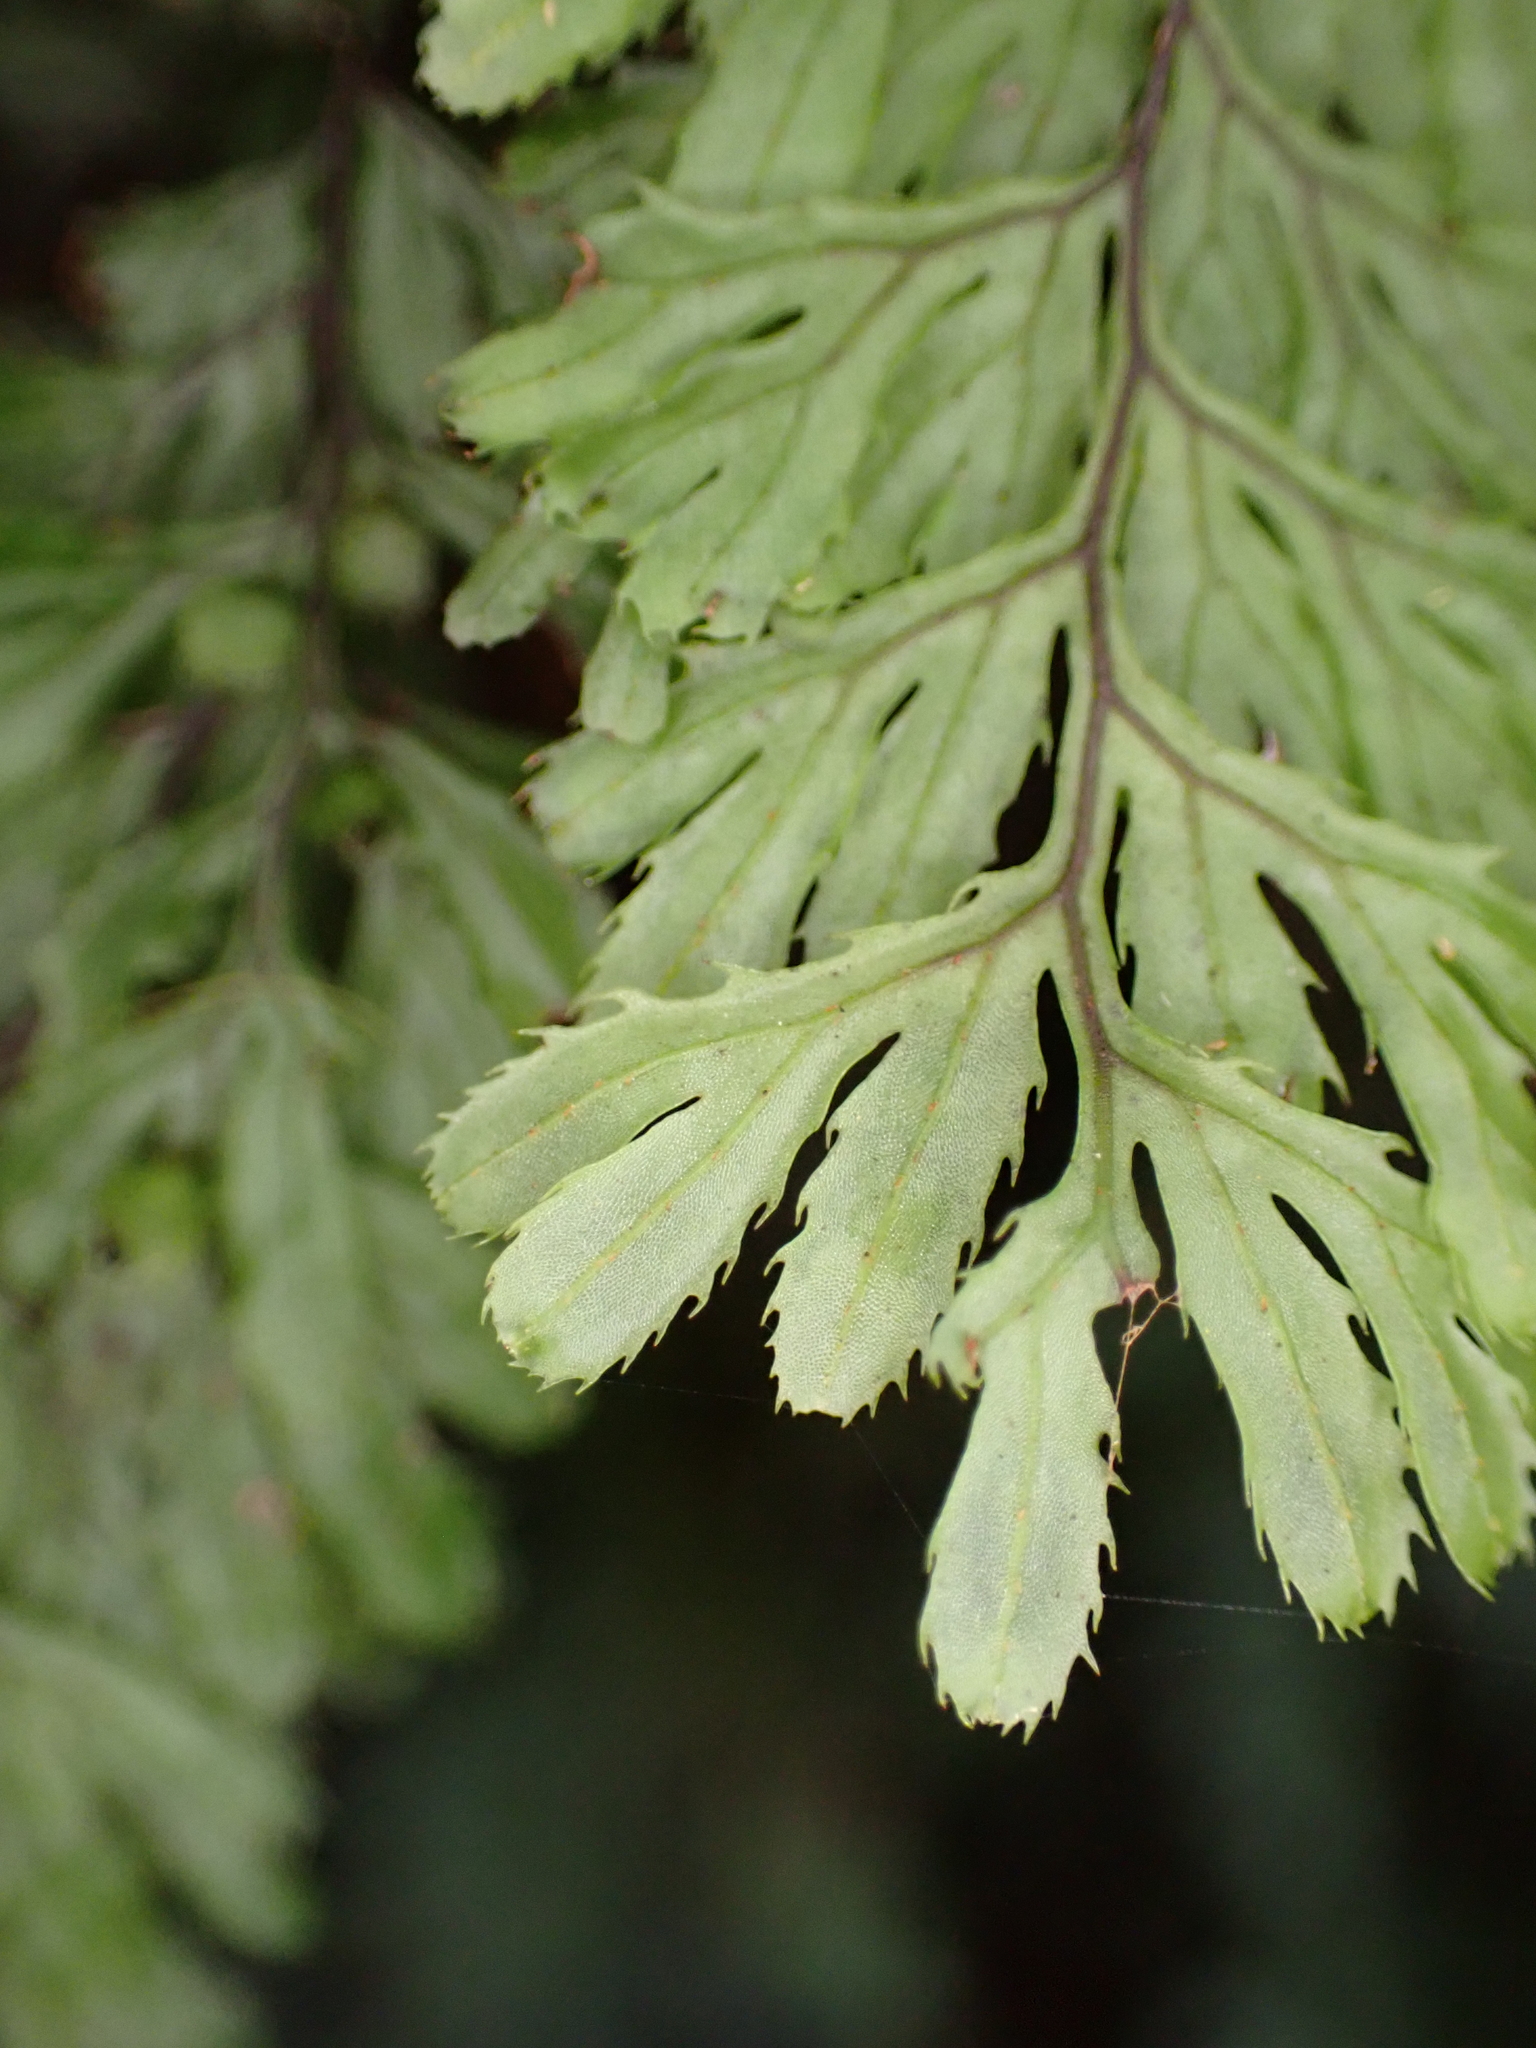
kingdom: Plantae
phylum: Tracheophyta
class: Polypodiopsida
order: Hymenophyllales
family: Hymenophyllaceae
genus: Hymenophyllum
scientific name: Hymenophyllum revolutum
